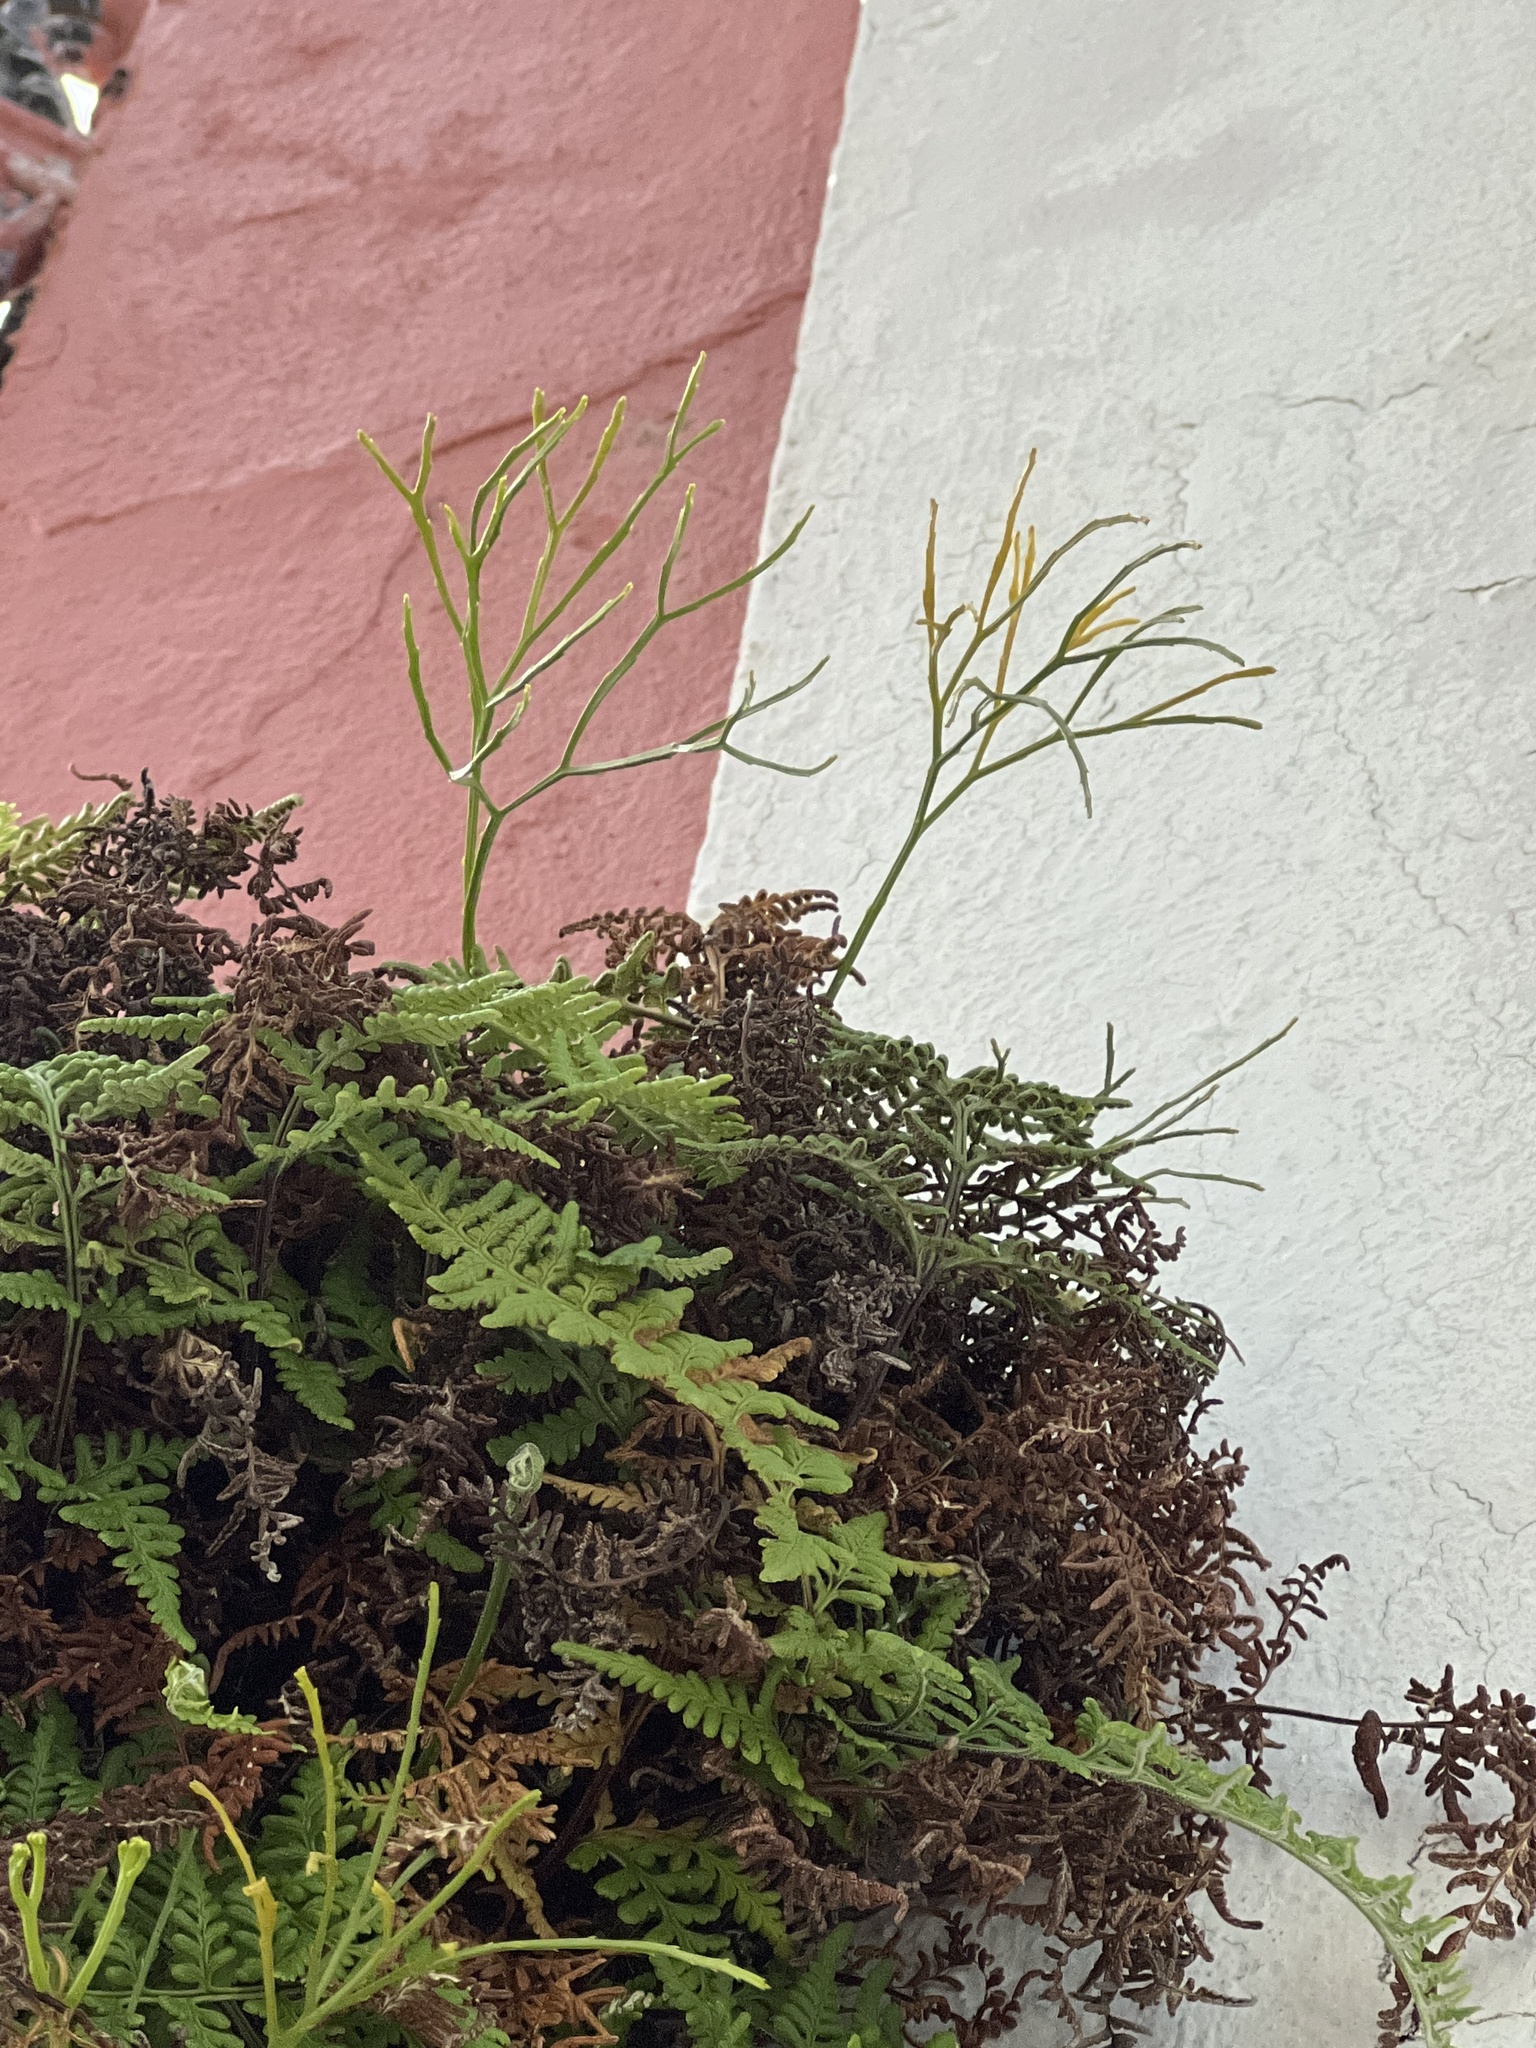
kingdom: Plantae
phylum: Tracheophyta
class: Polypodiopsida
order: Psilotales
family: Psilotaceae
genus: Psilotum
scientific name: Psilotum nudum
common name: Skeleton fork fern
